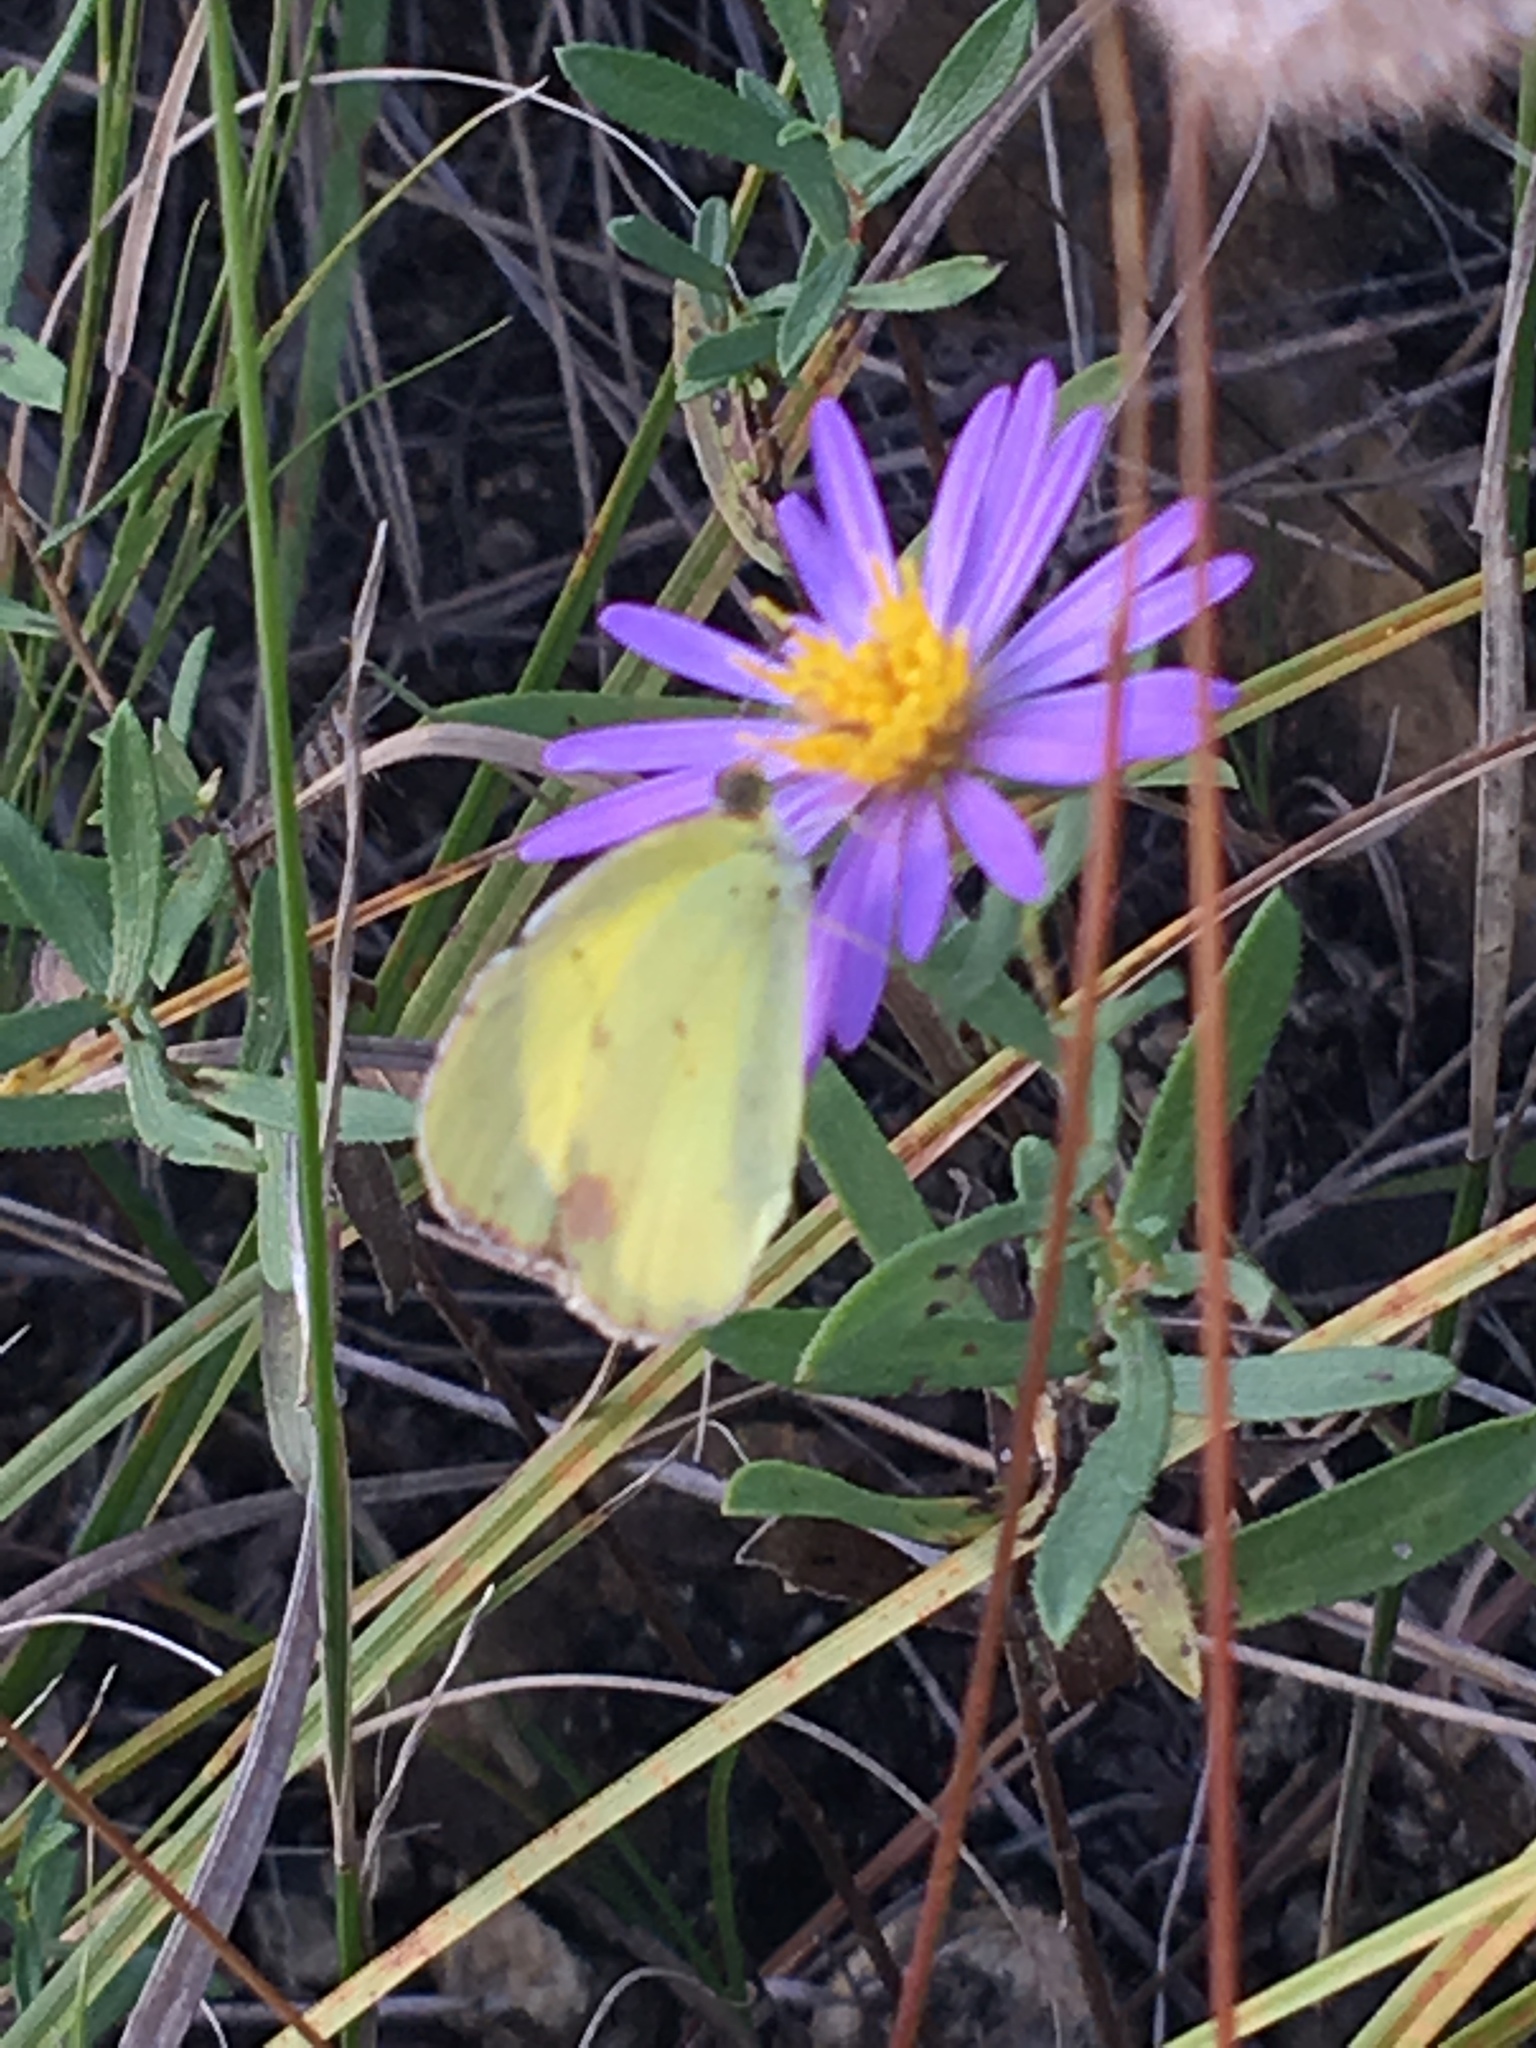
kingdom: Animalia
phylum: Arthropoda
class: Insecta
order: Lepidoptera
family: Pieridae
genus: Pyrisitia
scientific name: Pyrisitia lisa
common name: Little yellow
